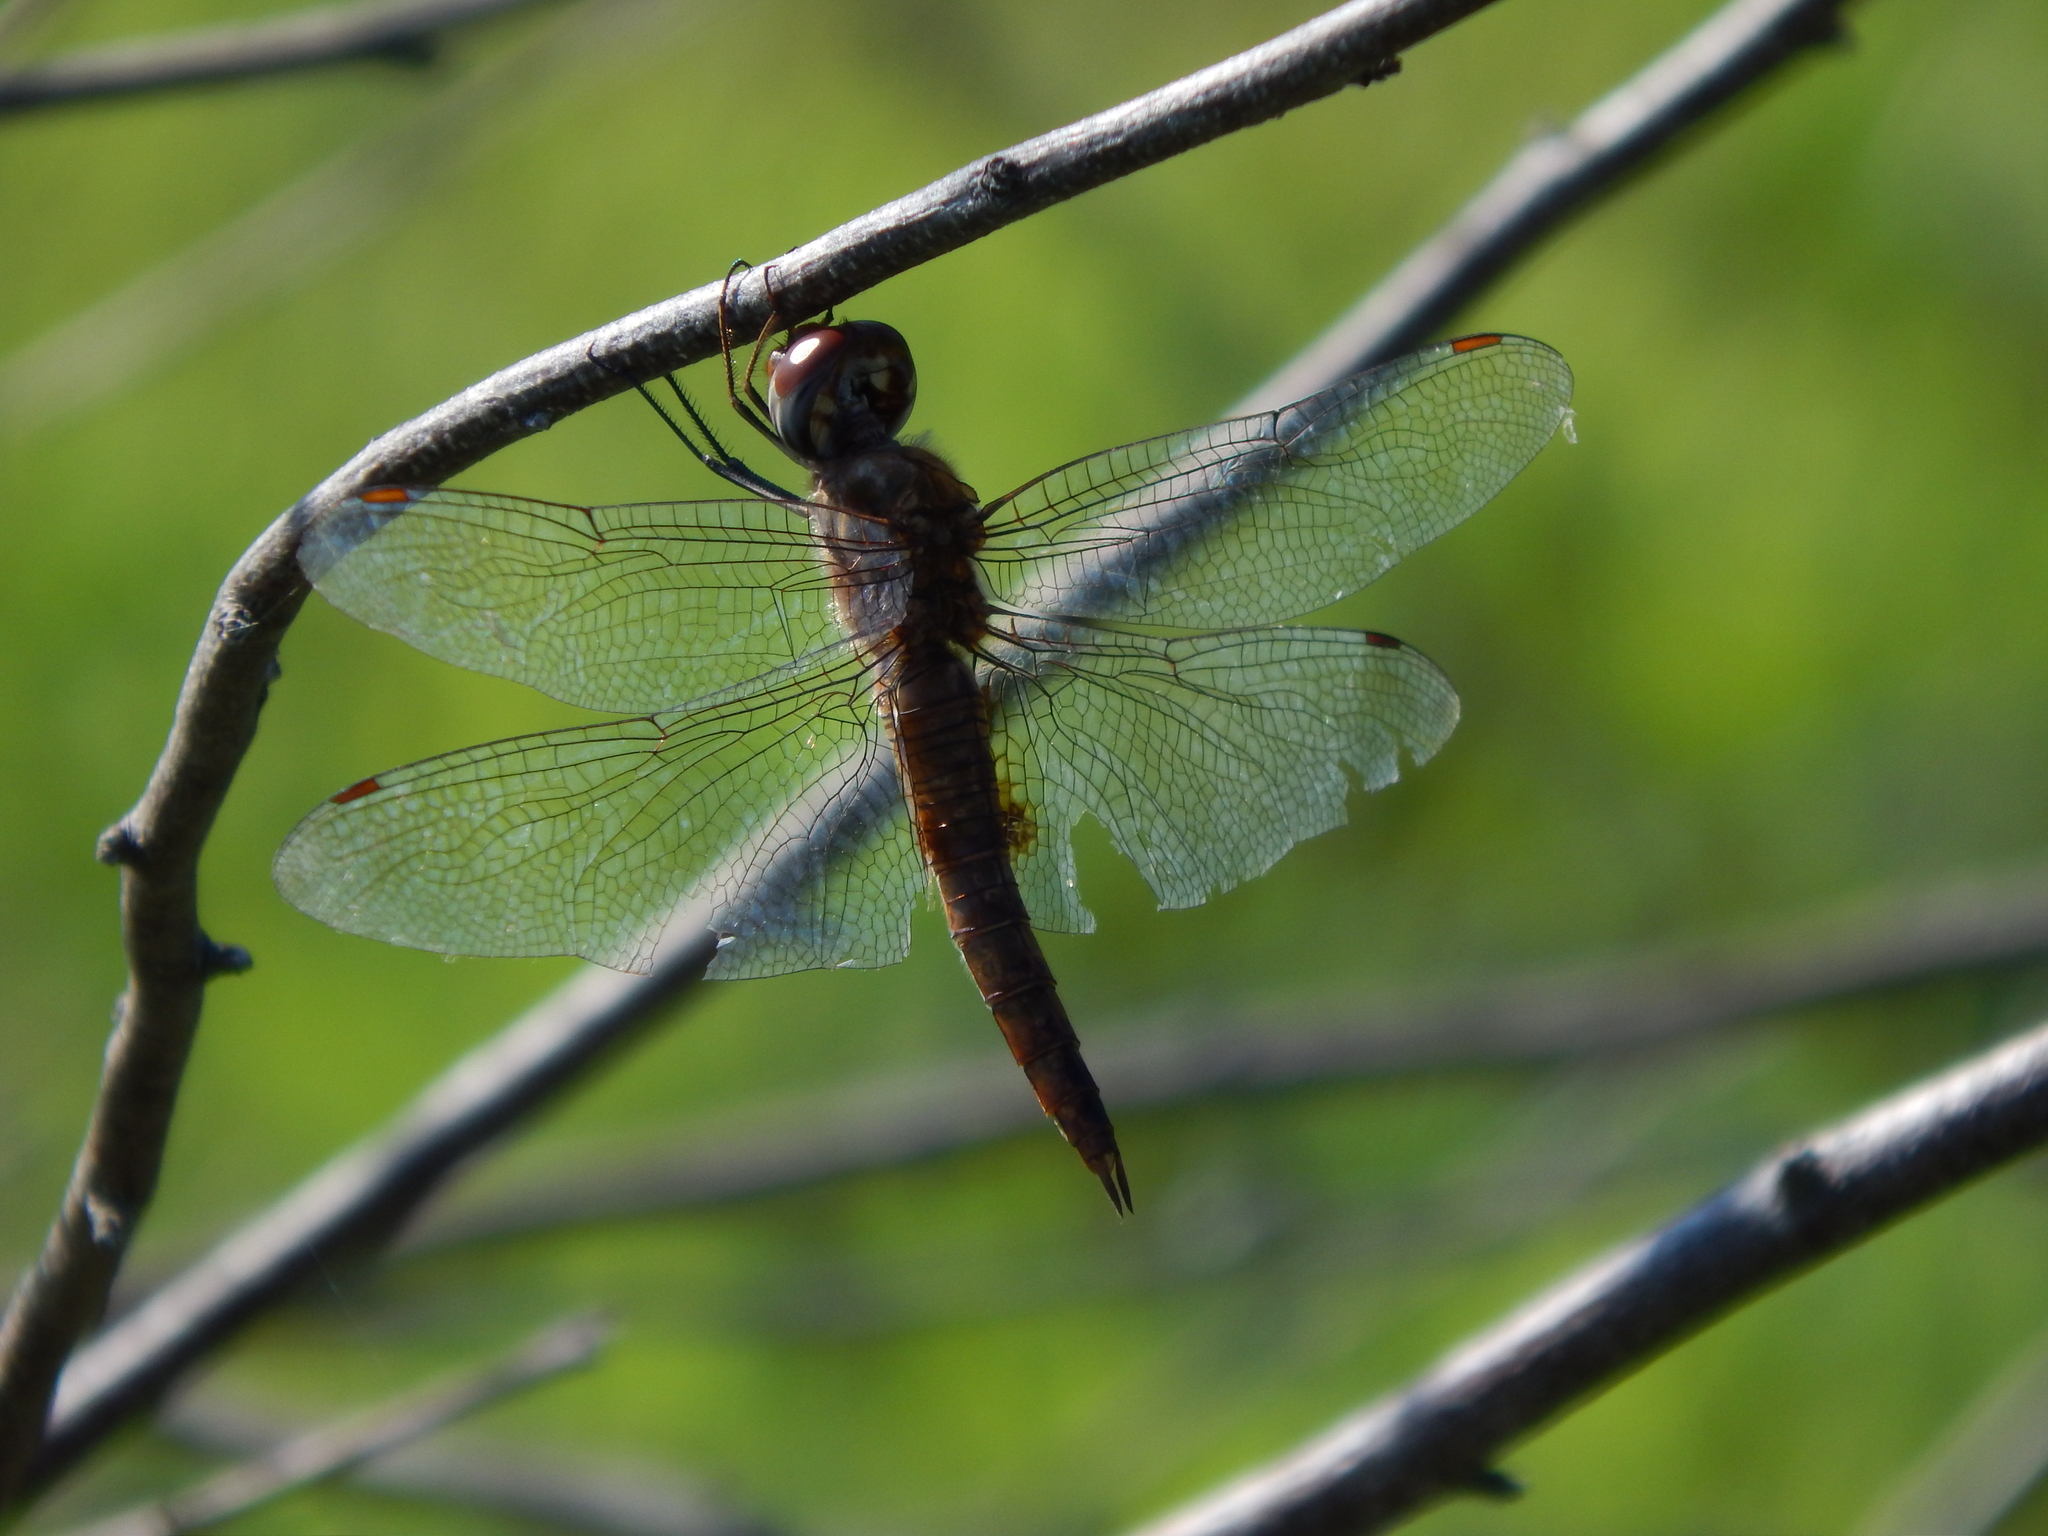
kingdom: Animalia
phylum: Arthropoda
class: Insecta
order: Odonata
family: Libellulidae
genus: Pantala
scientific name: Pantala hymenaea
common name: Spot-winged glider
